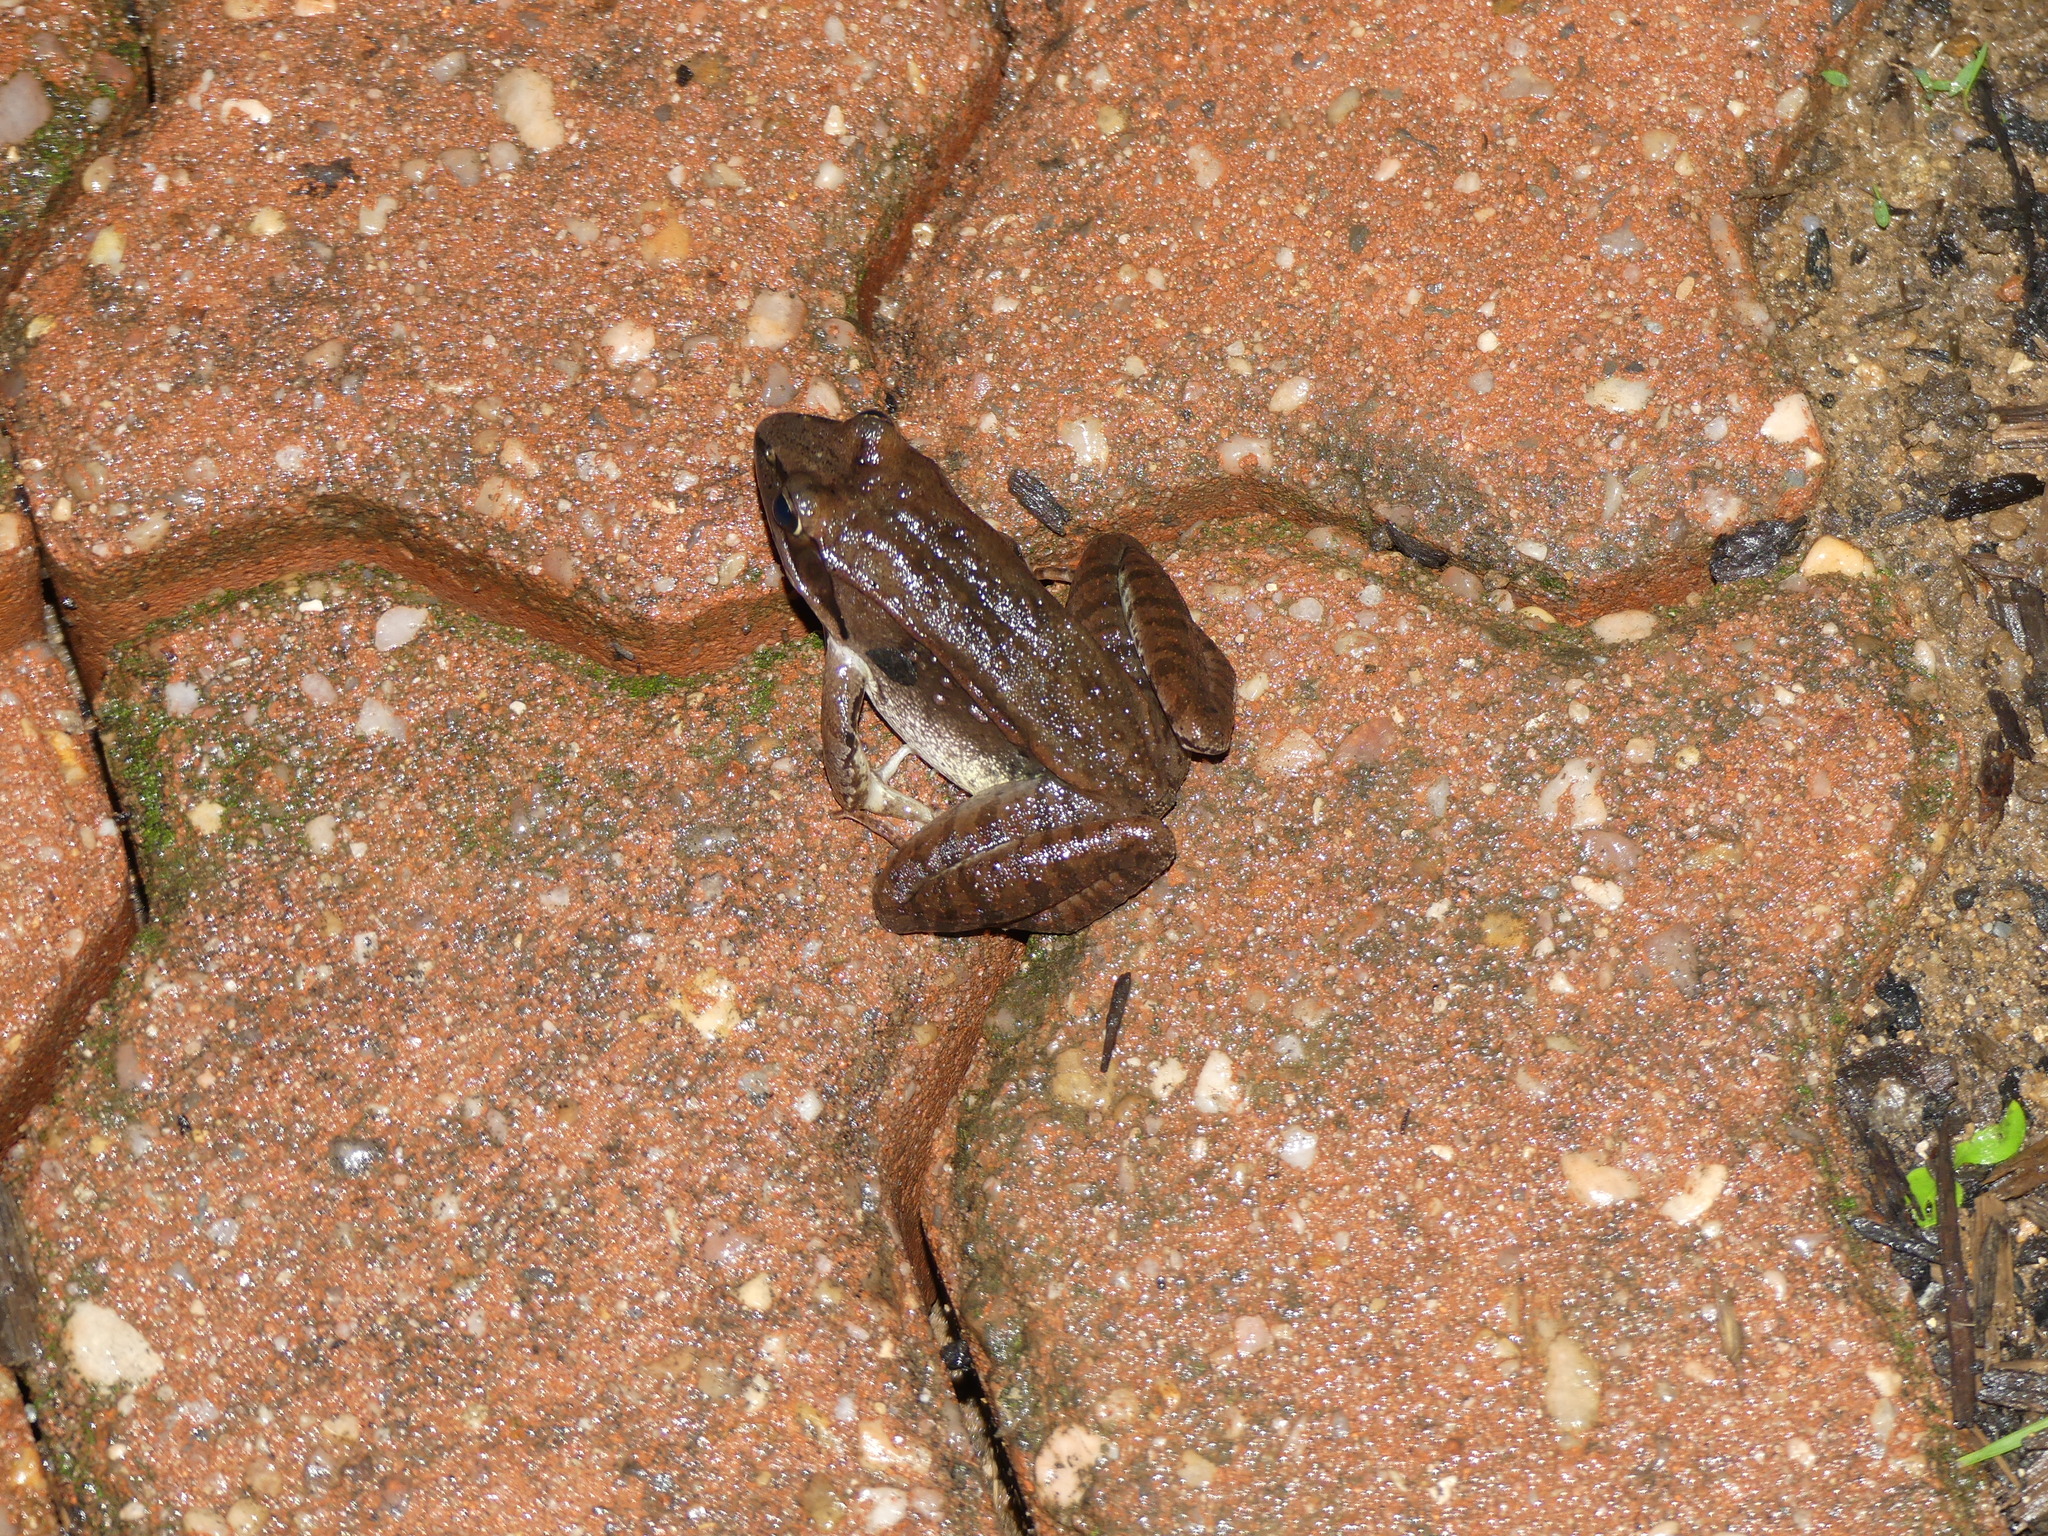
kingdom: Animalia
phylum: Chordata
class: Amphibia
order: Anura
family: Ranidae
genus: Lithobates
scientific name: Lithobates sylvaticus
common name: Wood frog
